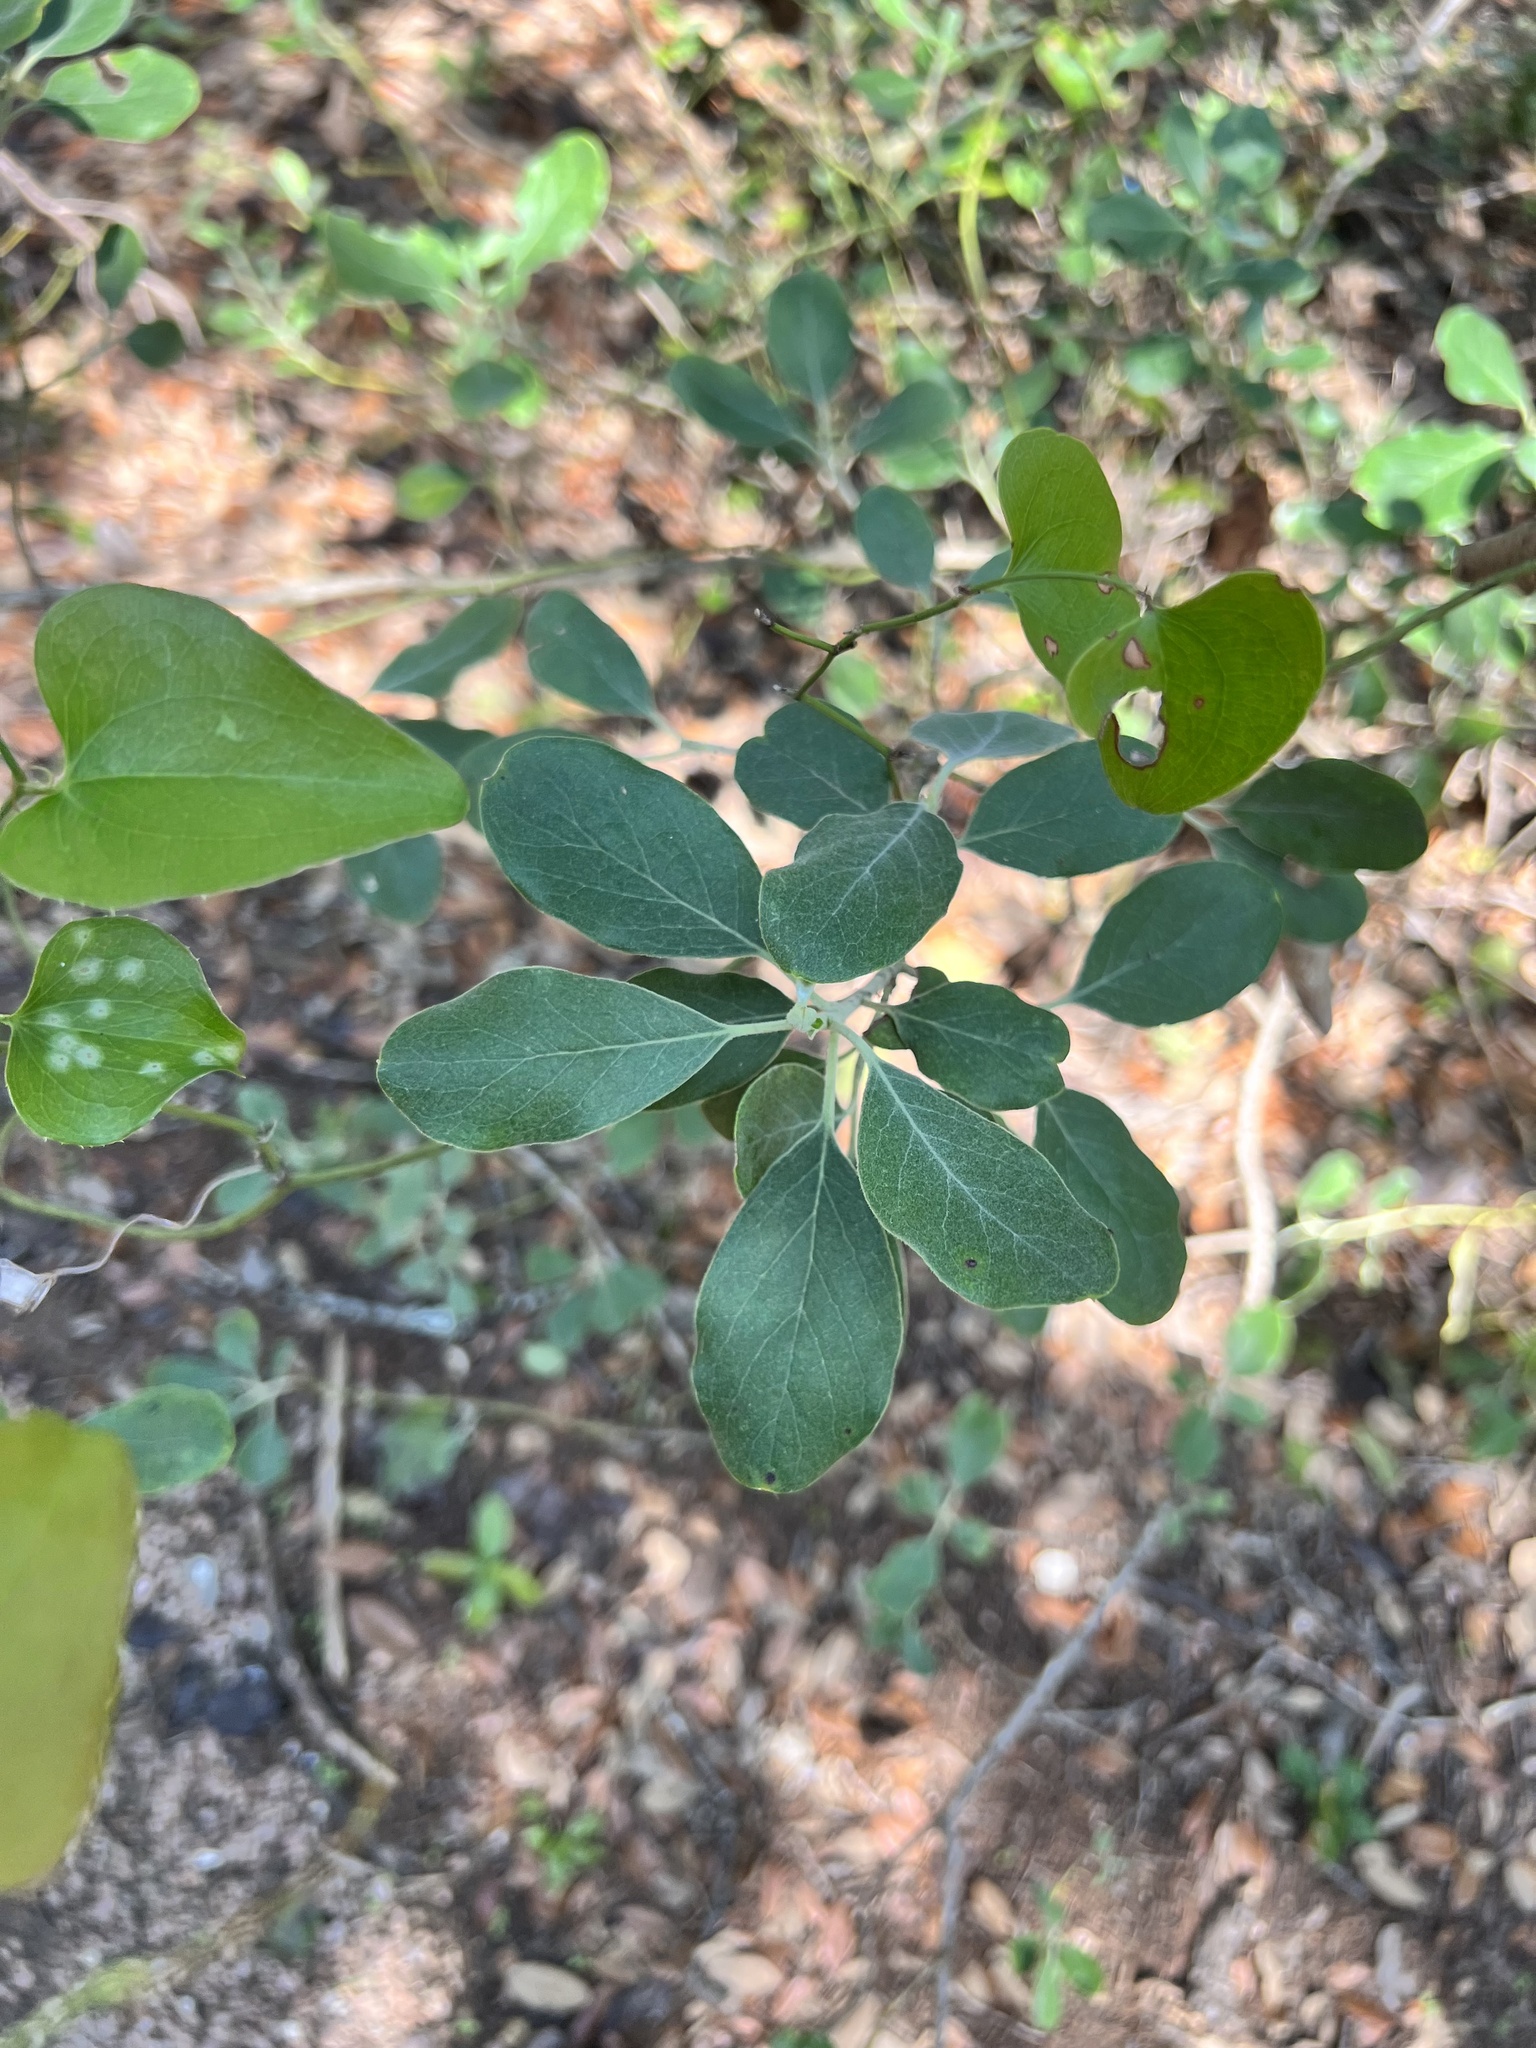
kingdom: Plantae
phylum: Tracheophyta
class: Magnoliopsida
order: Garryales
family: Garryaceae
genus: Garrya
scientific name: Garrya lindheimeri
